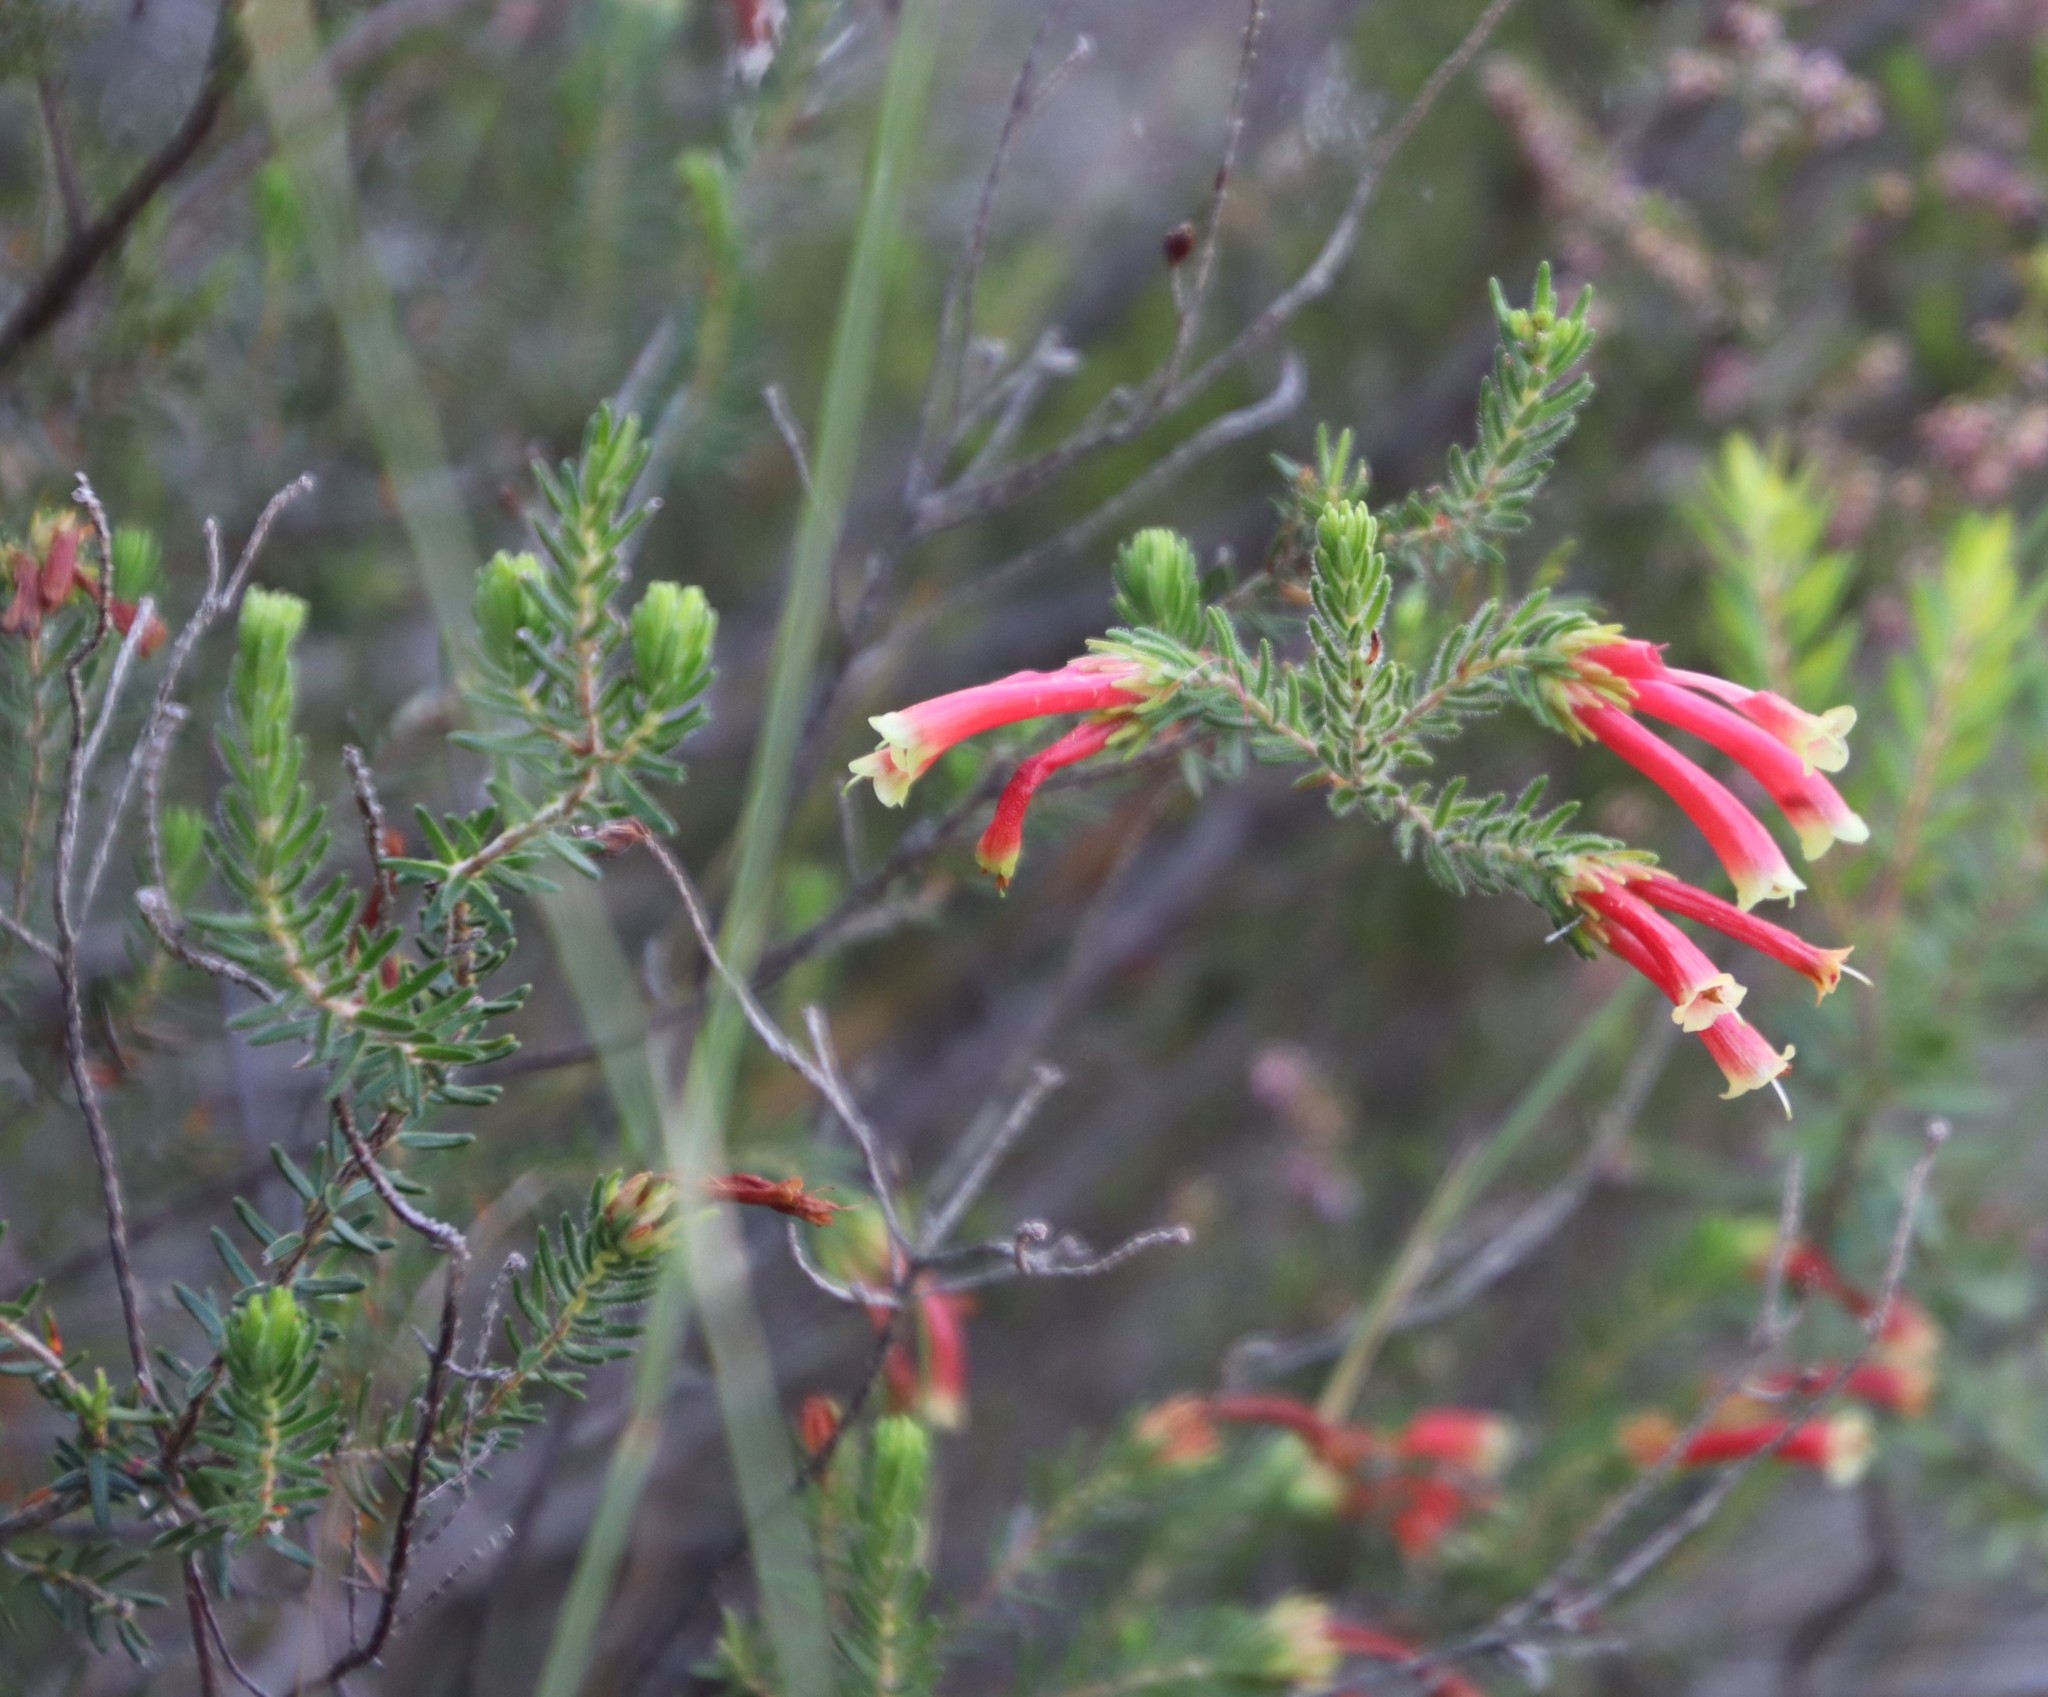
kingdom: Plantae
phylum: Tracheophyta
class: Magnoliopsida
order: Ericales
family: Ericaceae
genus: Erica
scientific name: Erica discolor
